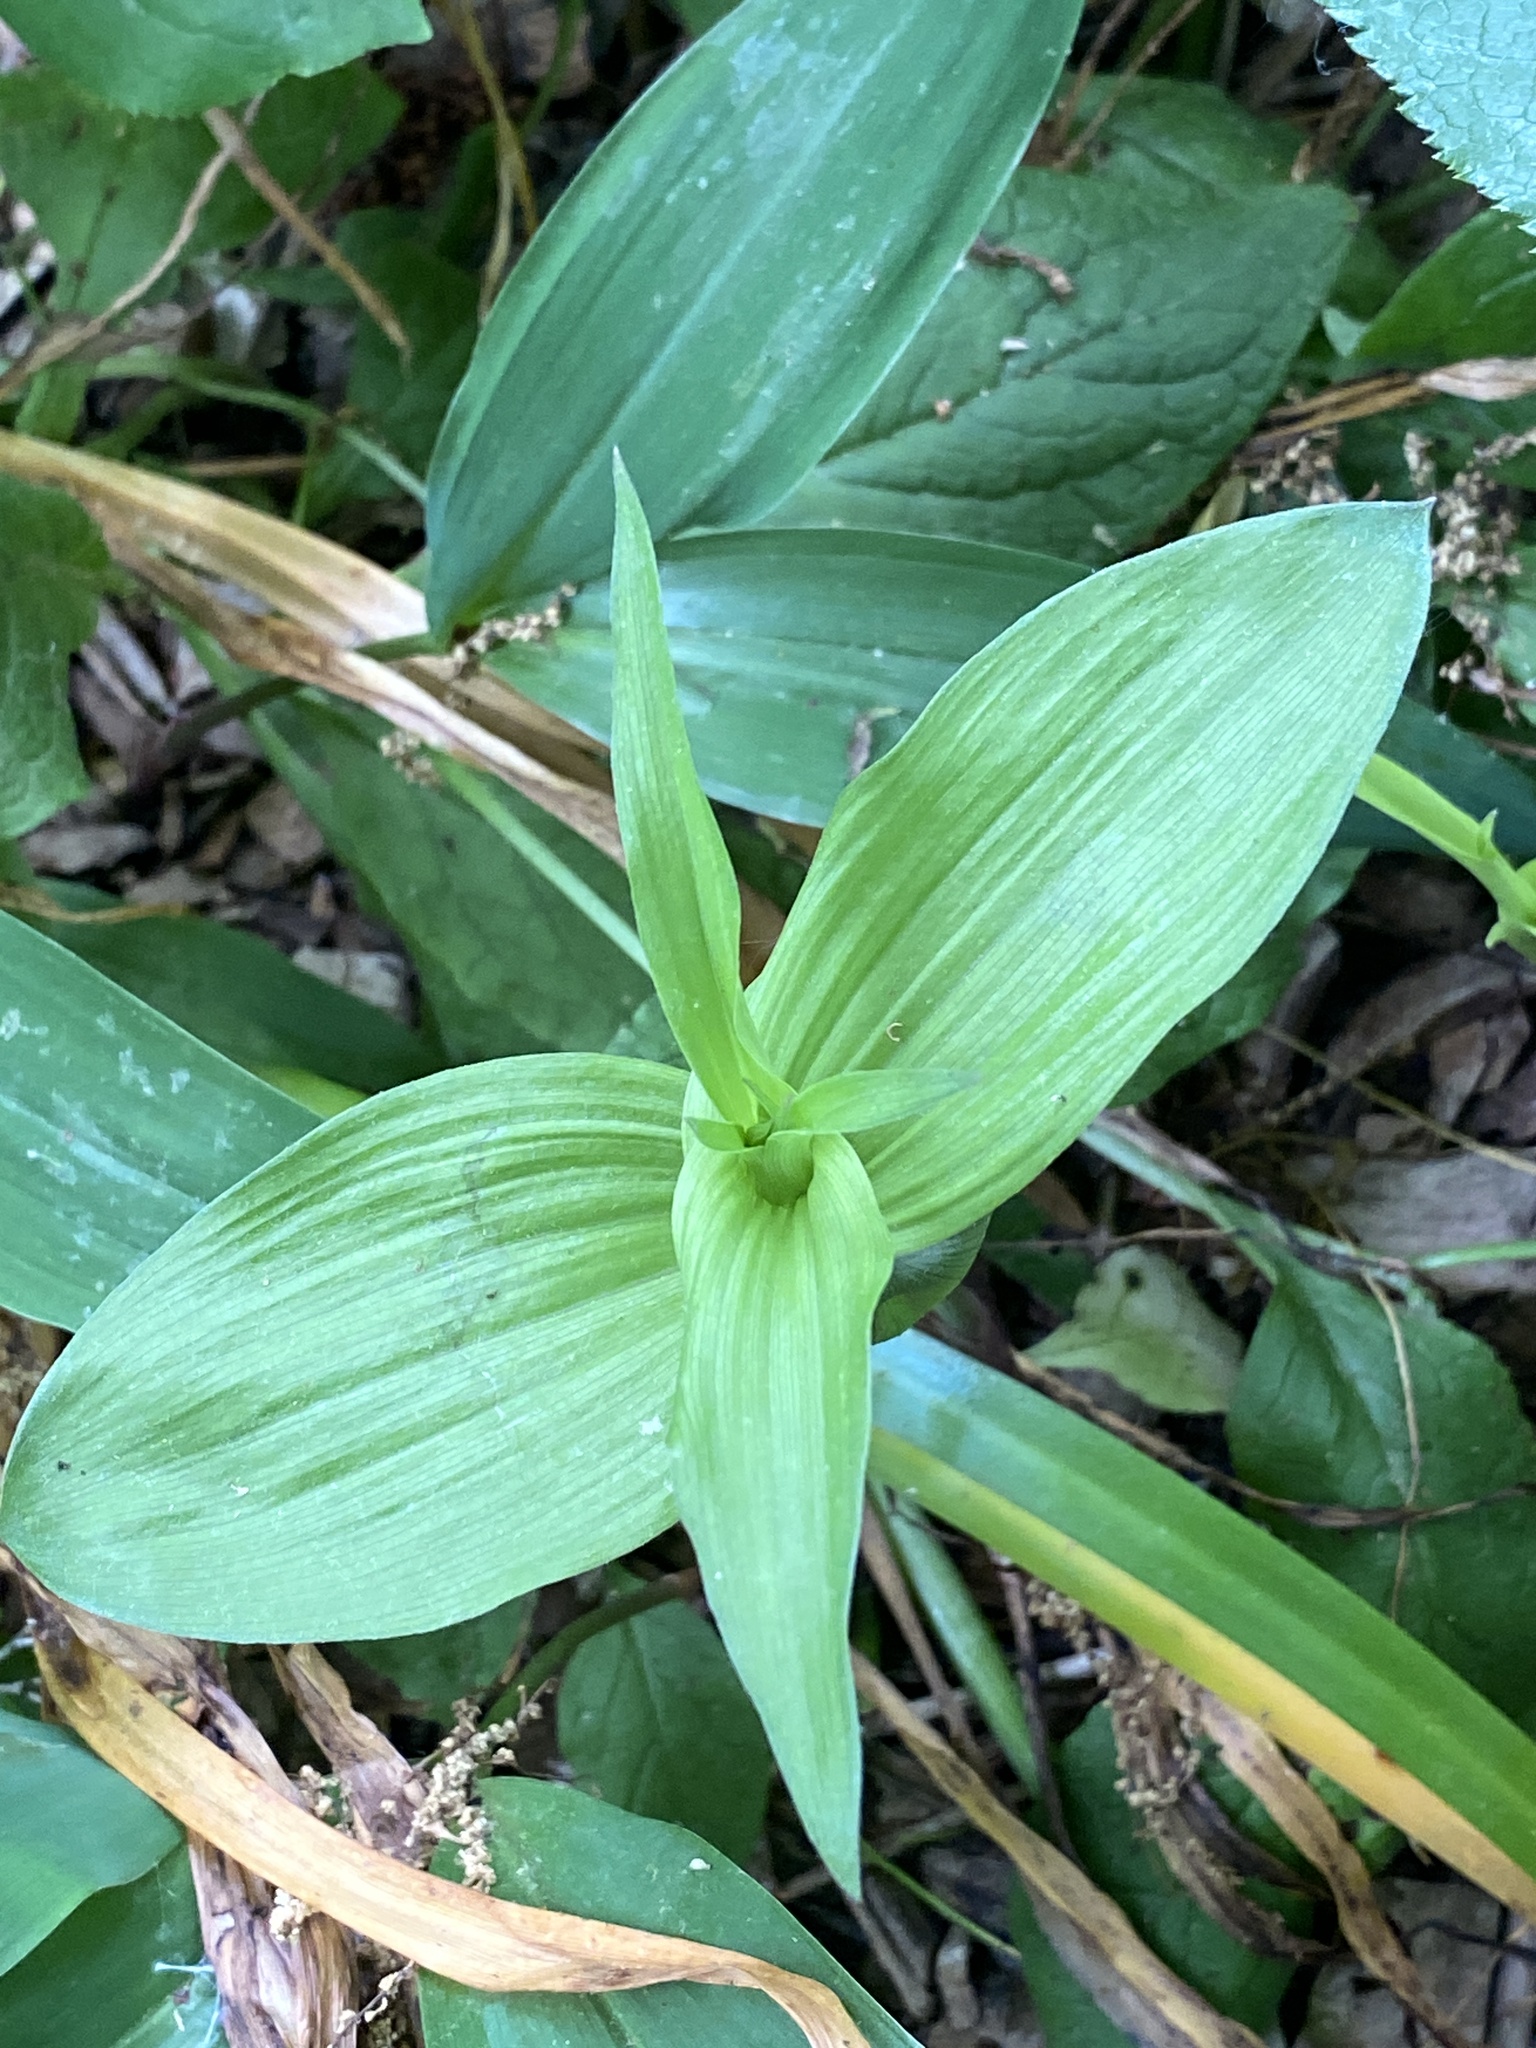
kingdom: Plantae
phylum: Tracheophyta
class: Liliopsida
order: Asparagales
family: Orchidaceae
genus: Epipactis
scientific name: Epipactis helleborine
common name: Broad-leaved helleborine
